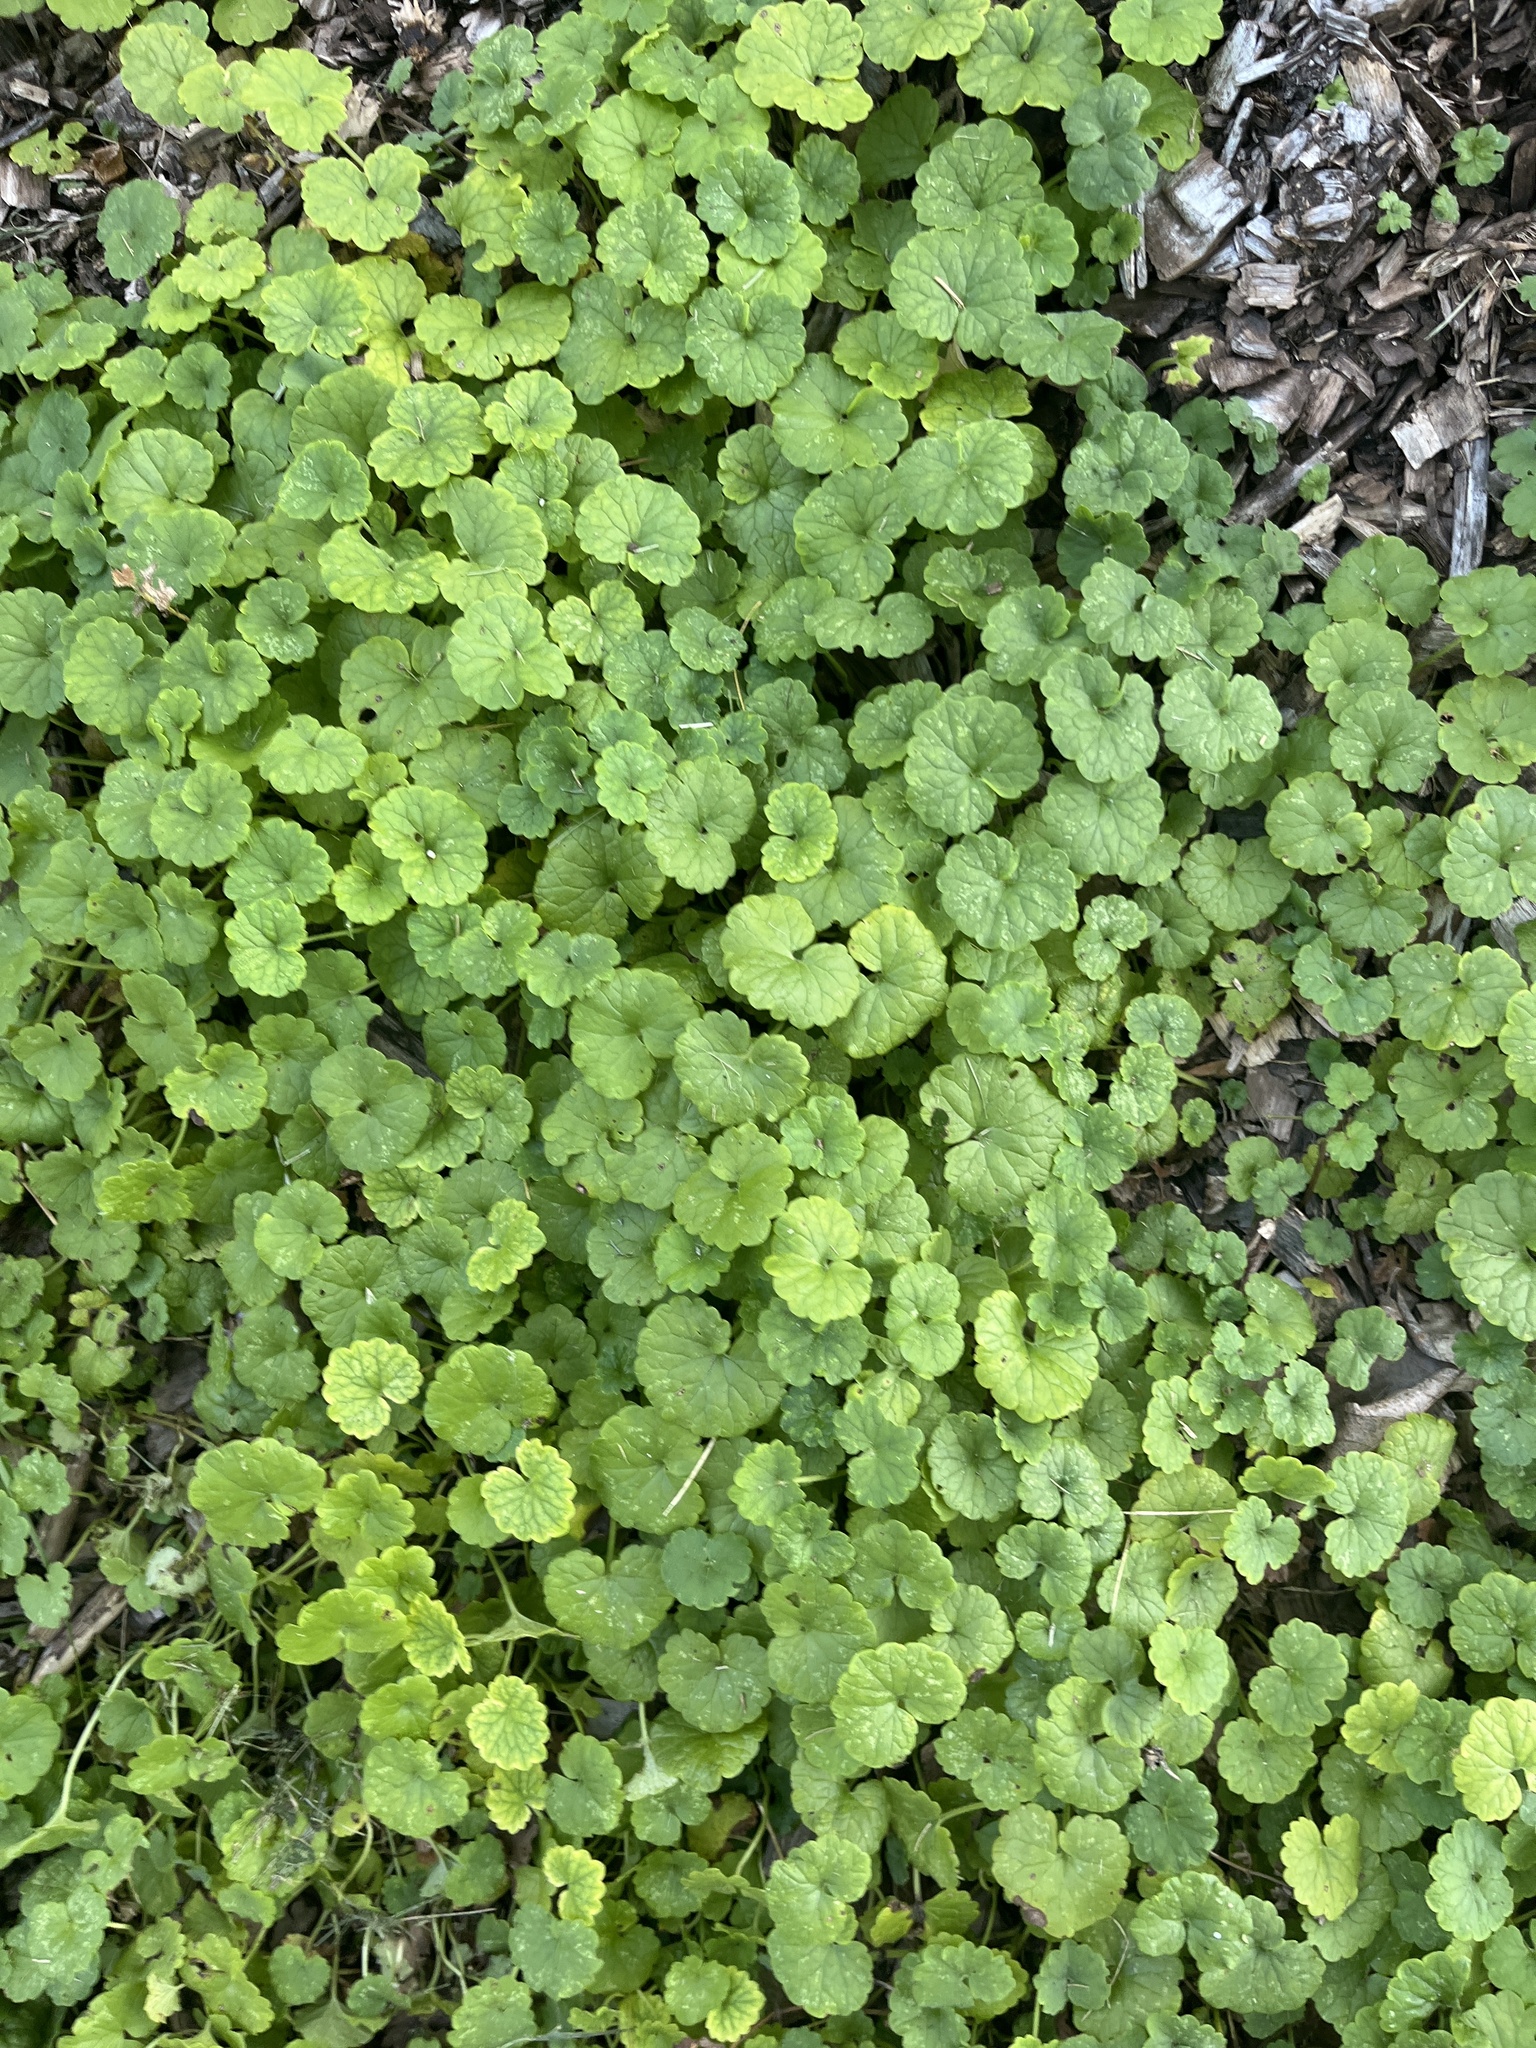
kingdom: Plantae
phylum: Tracheophyta
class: Magnoliopsida
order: Lamiales
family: Lamiaceae
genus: Glechoma
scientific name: Glechoma hederacea
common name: Ground ivy
